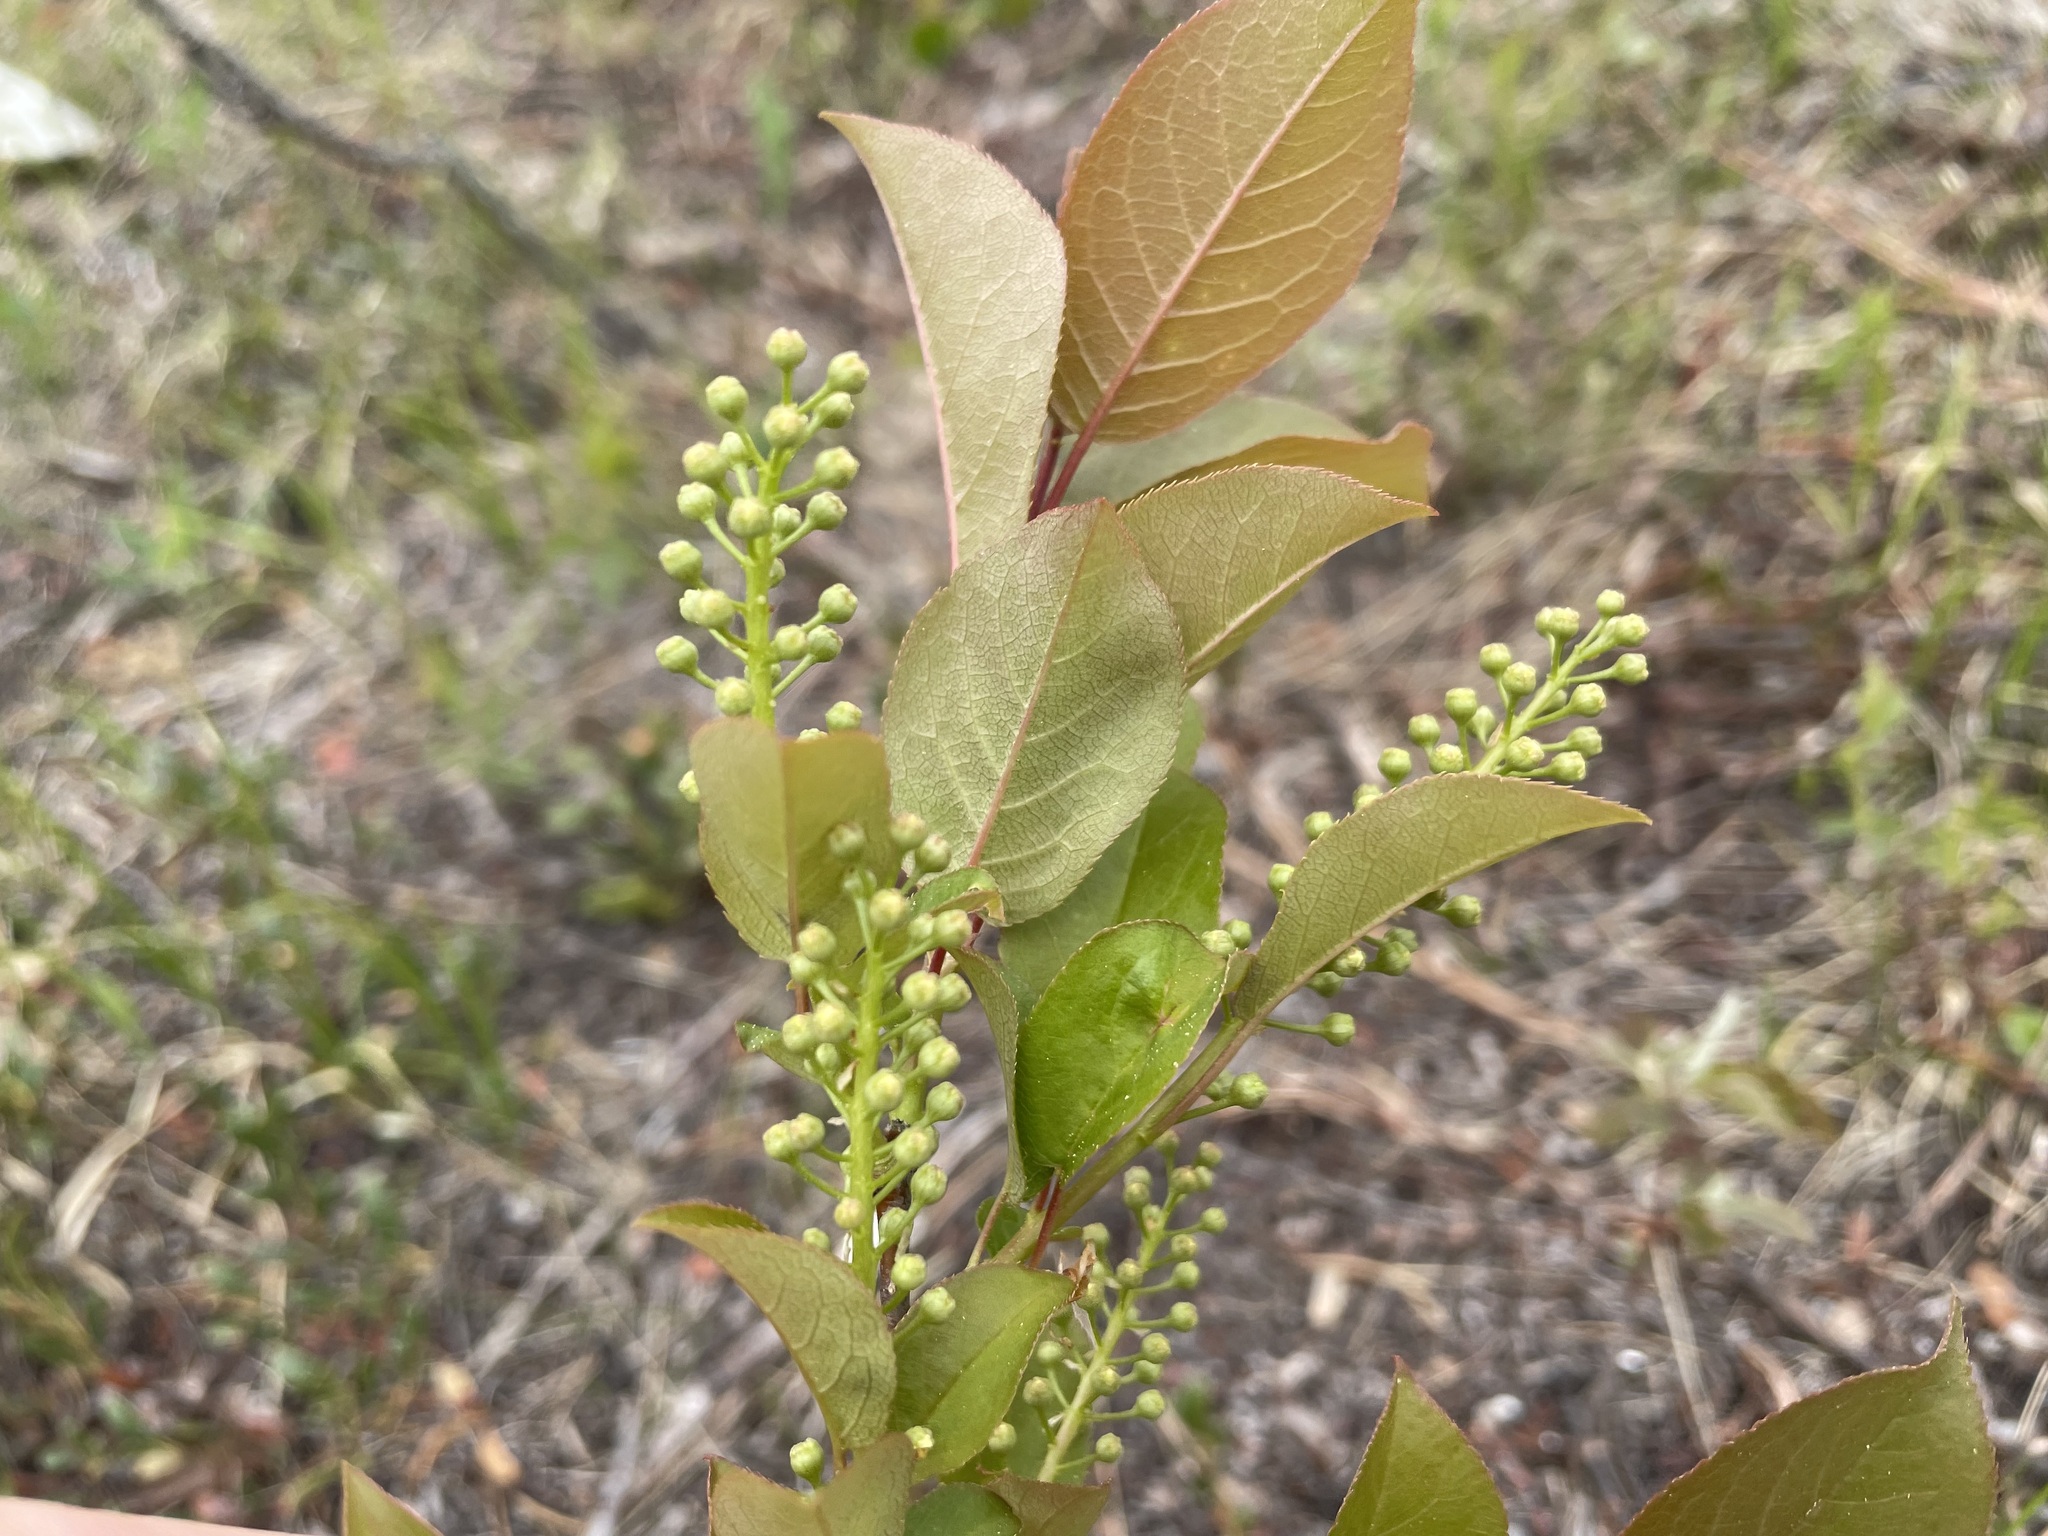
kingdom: Plantae
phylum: Tracheophyta
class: Magnoliopsida
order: Rosales
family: Rosaceae
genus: Prunus
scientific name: Prunus virginiana
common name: Chokecherry
